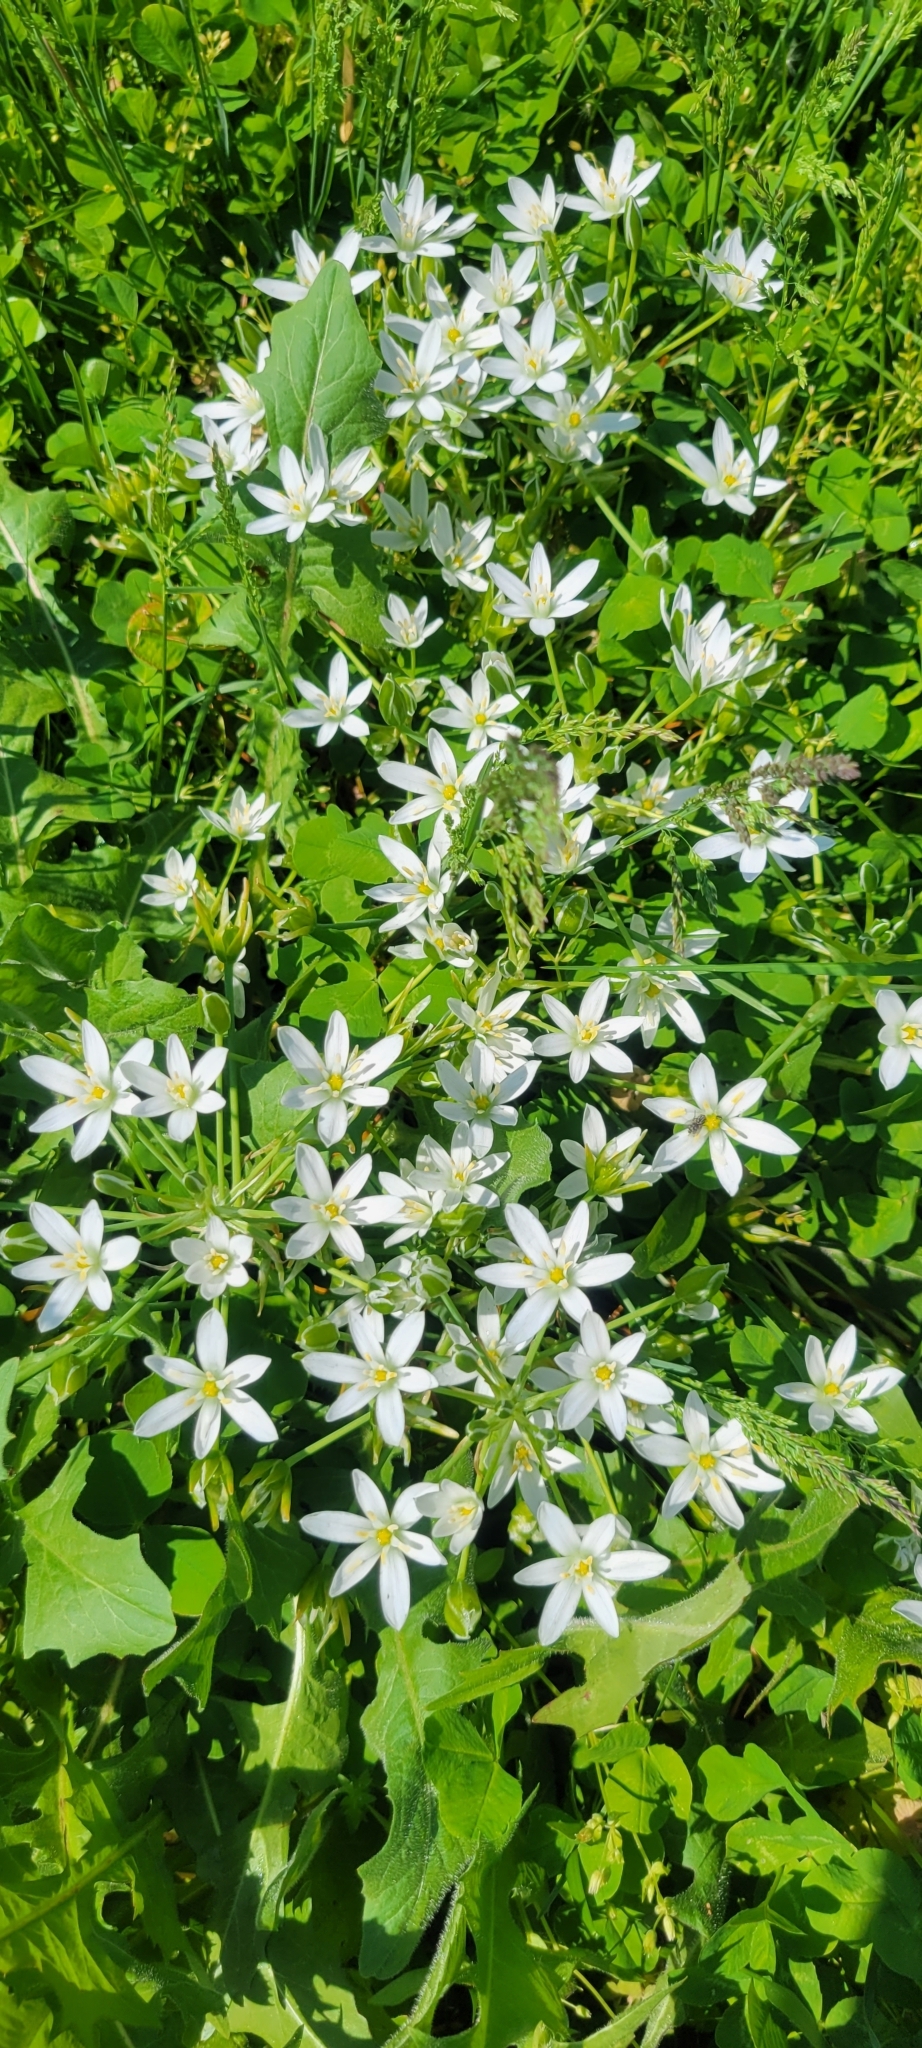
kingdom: Plantae
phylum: Tracheophyta
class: Liliopsida
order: Asparagales
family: Asparagaceae
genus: Ornithogalum
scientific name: Ornithogalum umbellatum
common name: Garden star-of-bethlehem
